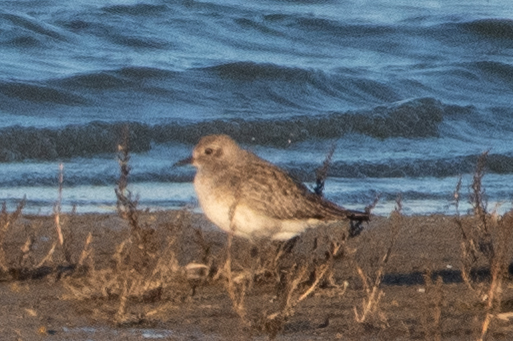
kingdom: Animalia
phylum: Chordata
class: Aves
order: Charadriiformes
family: Charadriidae
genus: Pluvialis
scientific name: Pluvialis squatarola
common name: Grey plover
